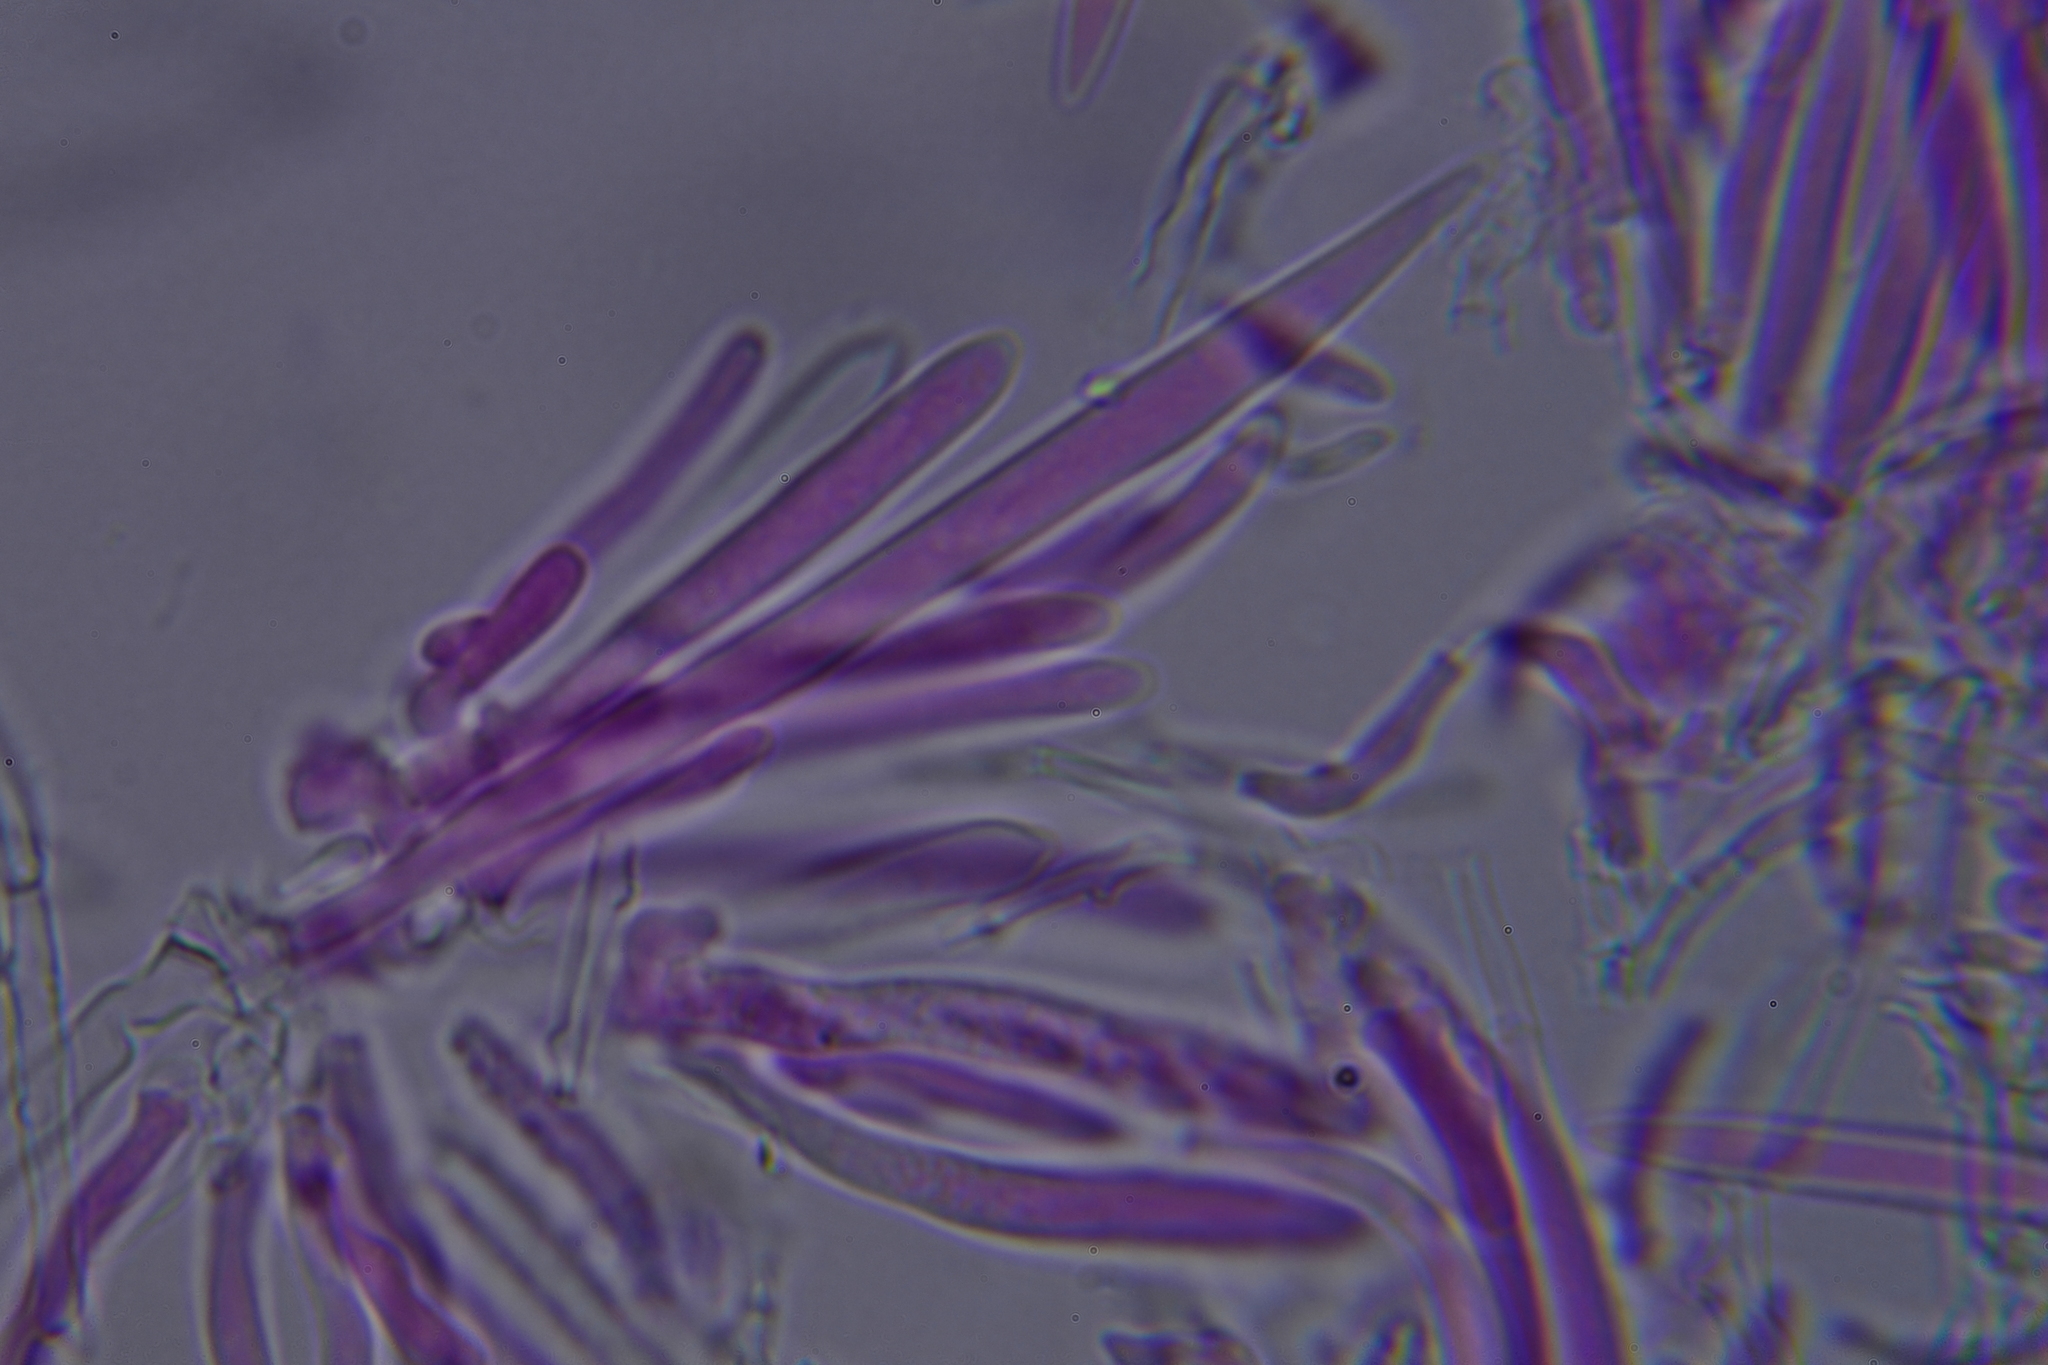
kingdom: Fungi
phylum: Ascomycota
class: Leotiomycetes
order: Helotiales
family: Lachnaceae
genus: Lachnum
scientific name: Lachnum virgineum
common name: Snowy disco
